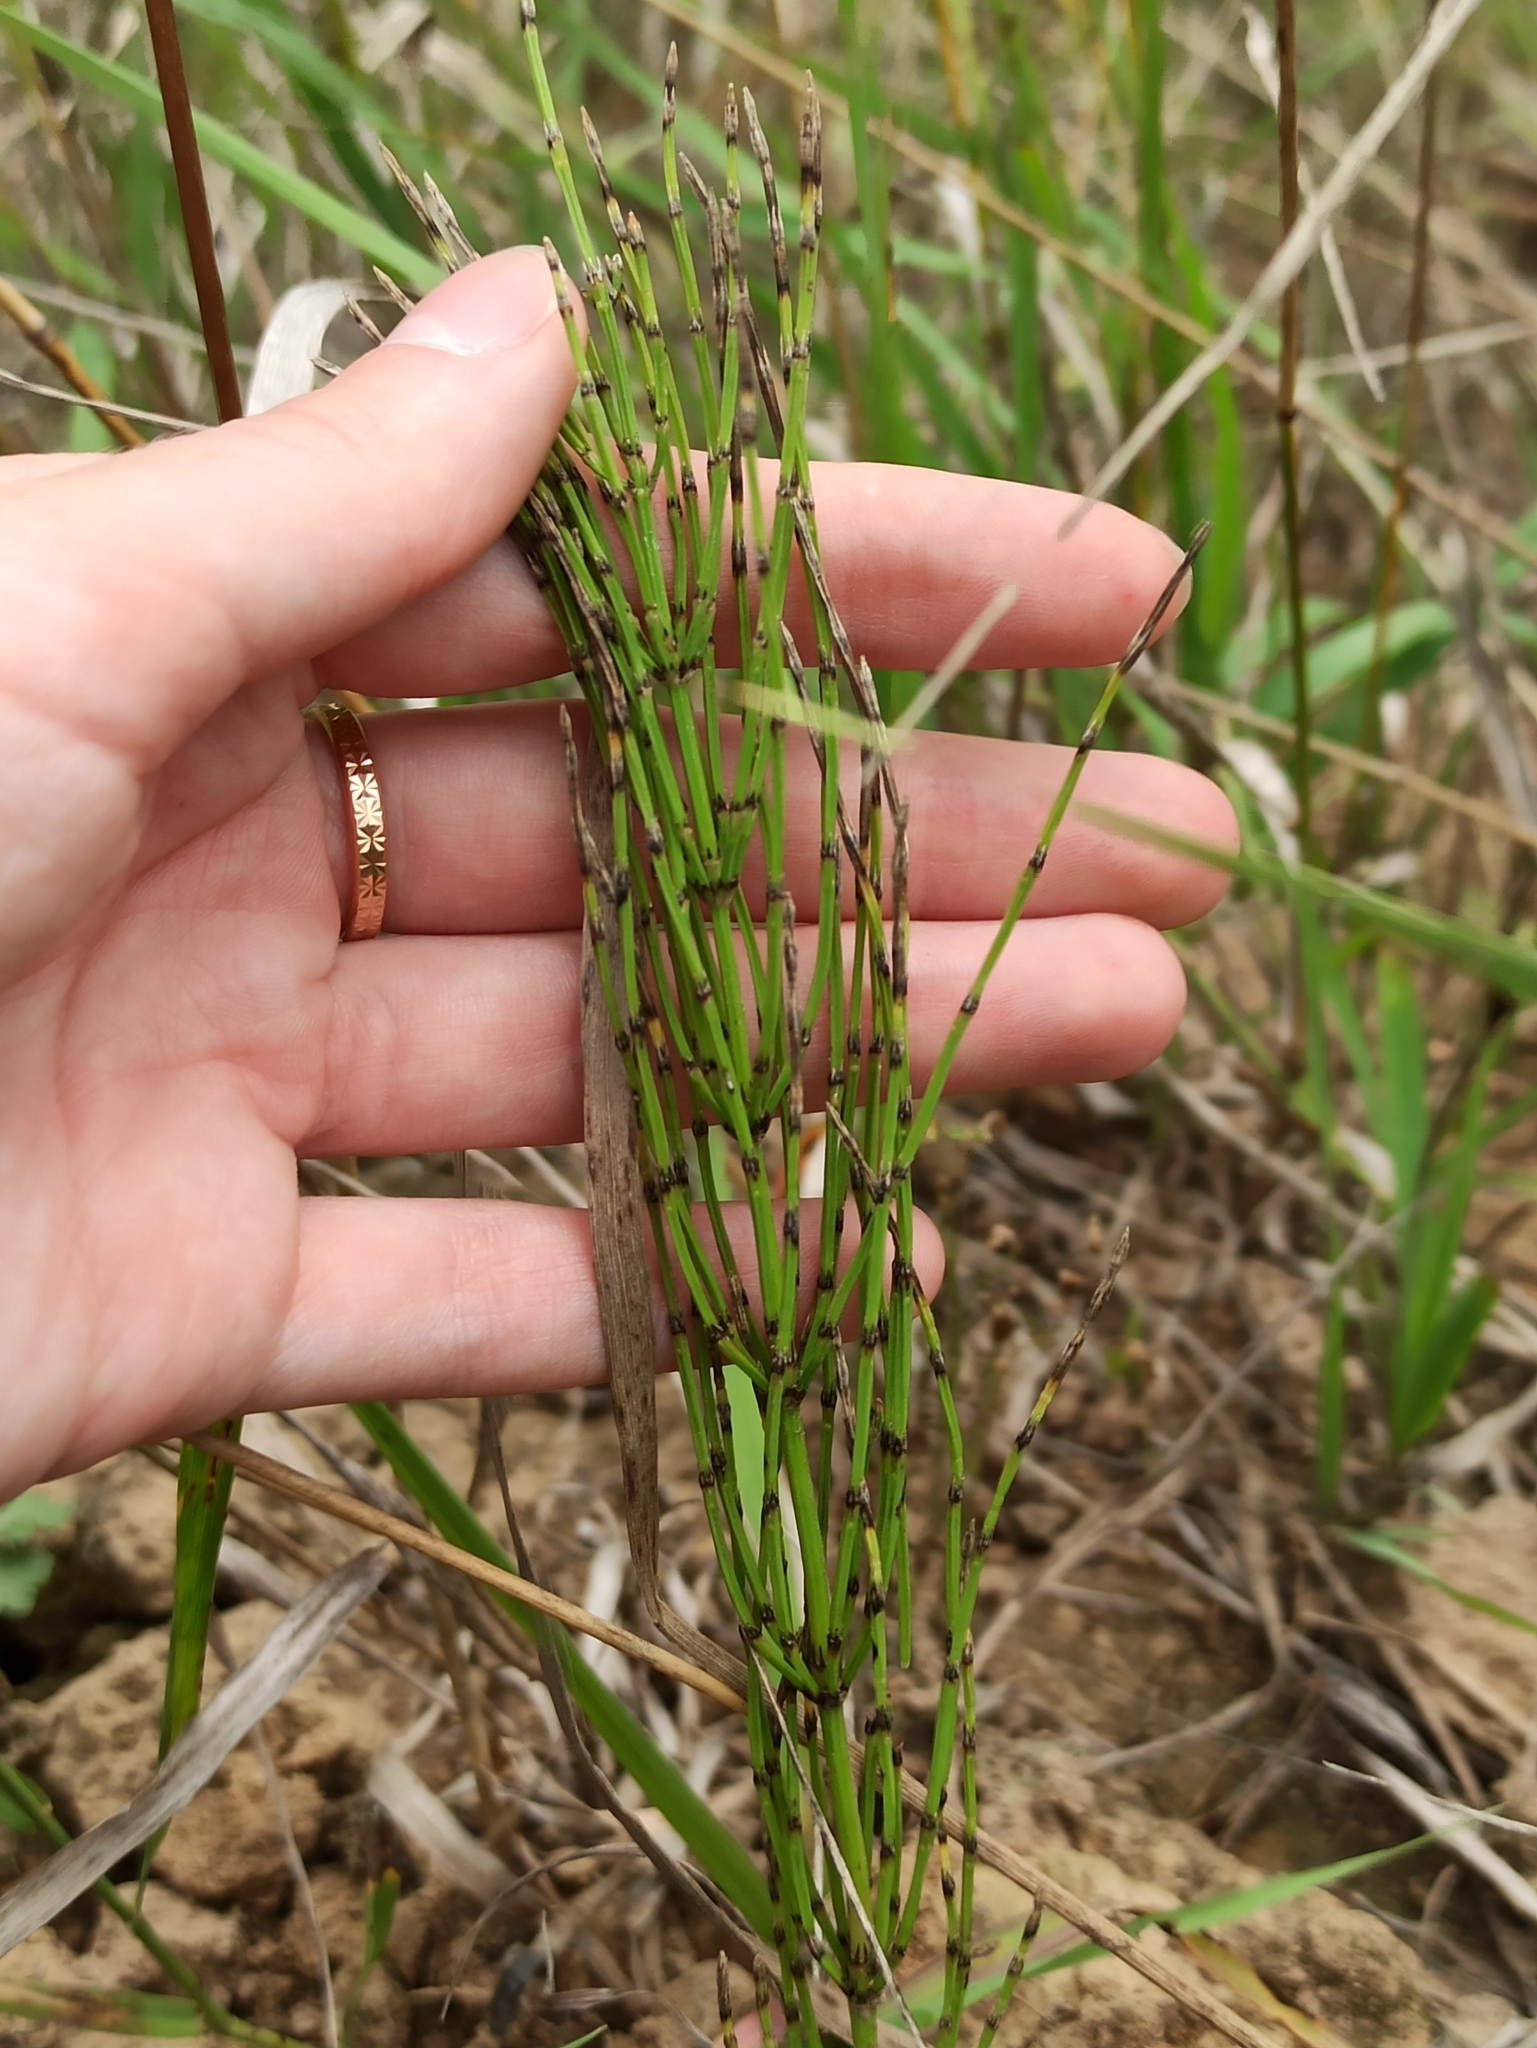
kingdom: Plantae
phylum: Tracheophyta
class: Polypodiopsida
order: Equisetales
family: Equisetaceae
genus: Equisetum
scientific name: Equisetum arvense
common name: Field horsetail
